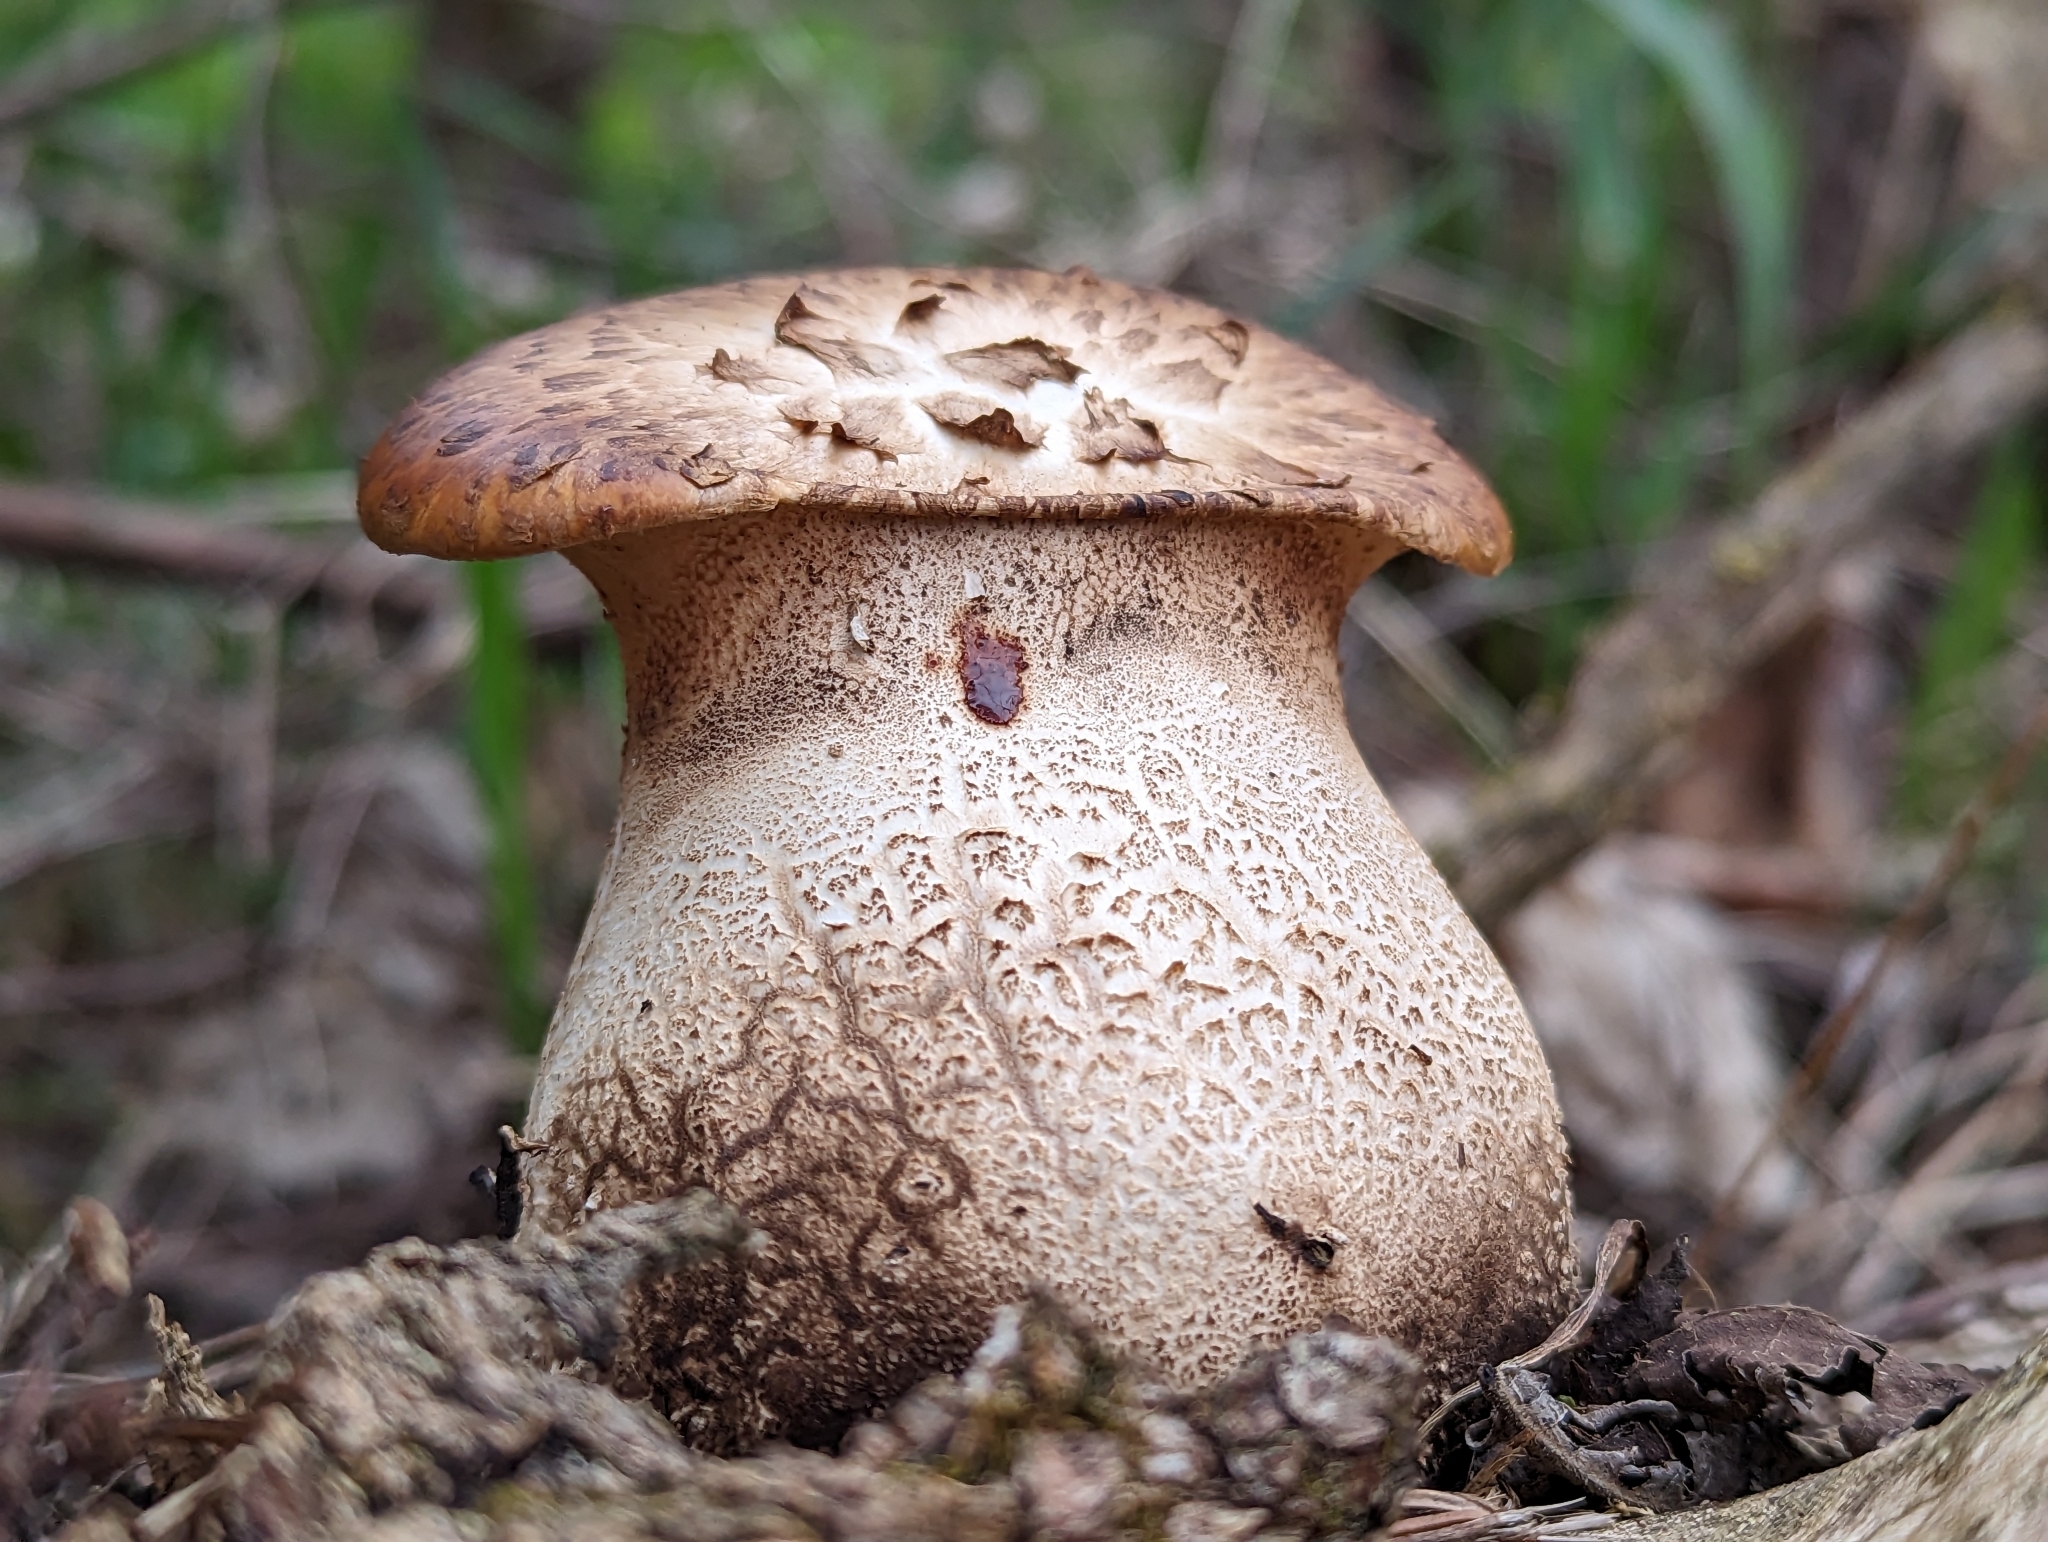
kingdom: Fungi
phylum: Basidiomycota
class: Agaricomycetes
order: Polyporales
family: Polyporaceae
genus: Cerioporus
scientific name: Cerioporus squamosus
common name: Dryad's saddle
